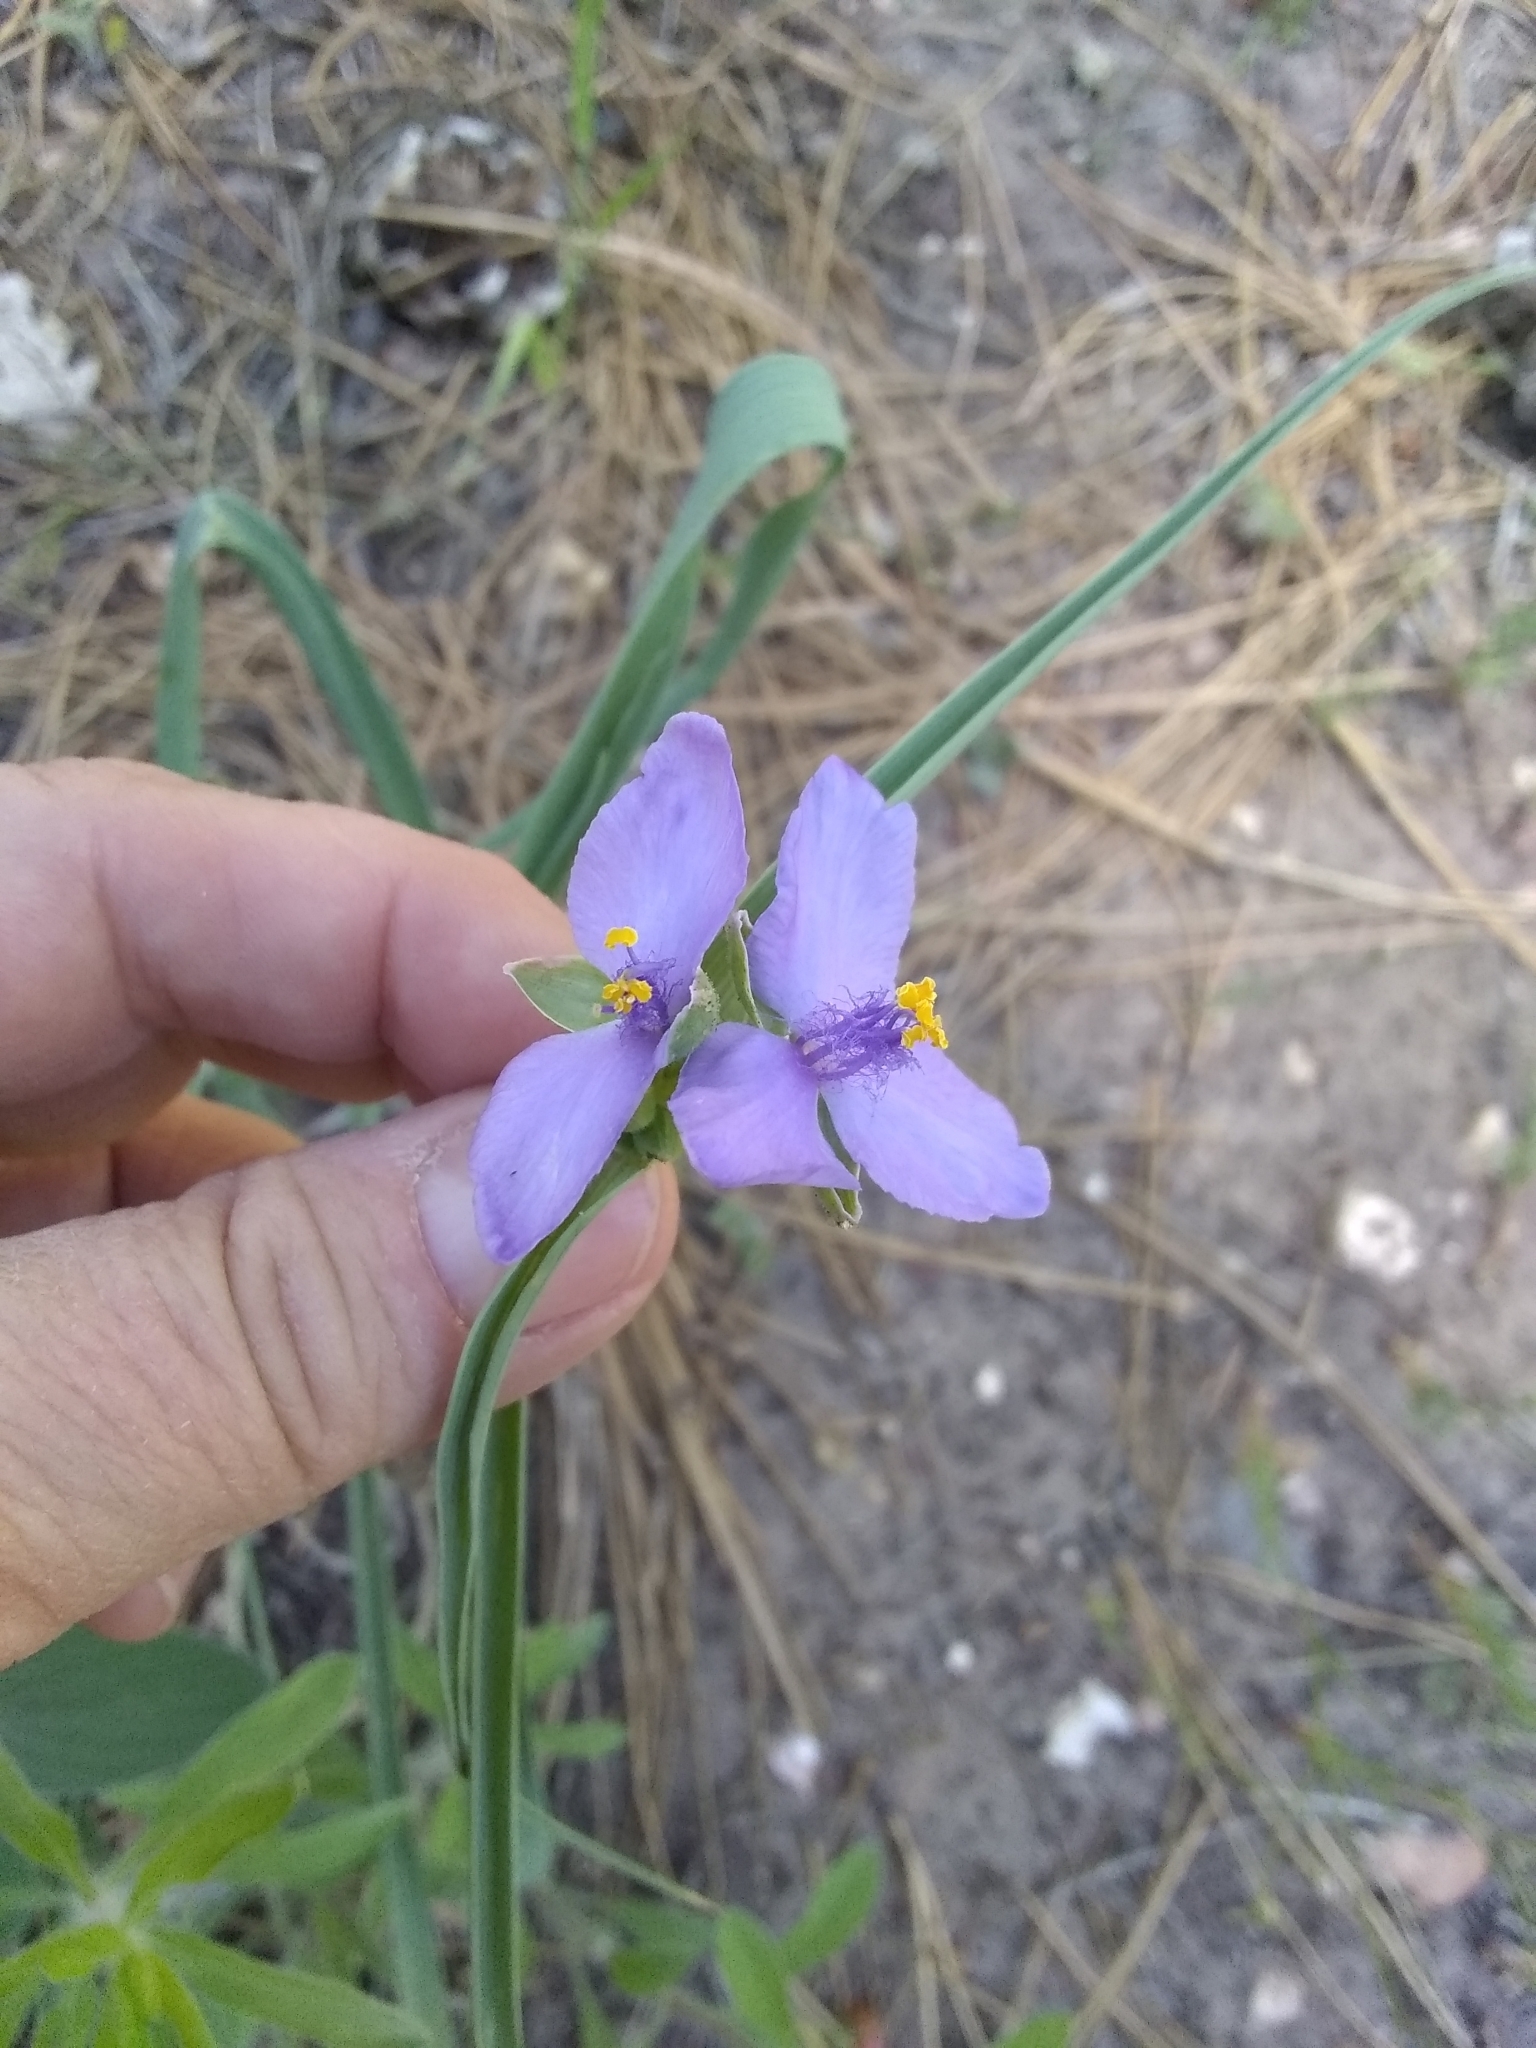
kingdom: Plantae
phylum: Tracheophyta
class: Liliopsida
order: Commelinales
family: Commelinaceae
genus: Tradescantia
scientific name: Tradescantia occidentalis
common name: Prairie spiderwort
